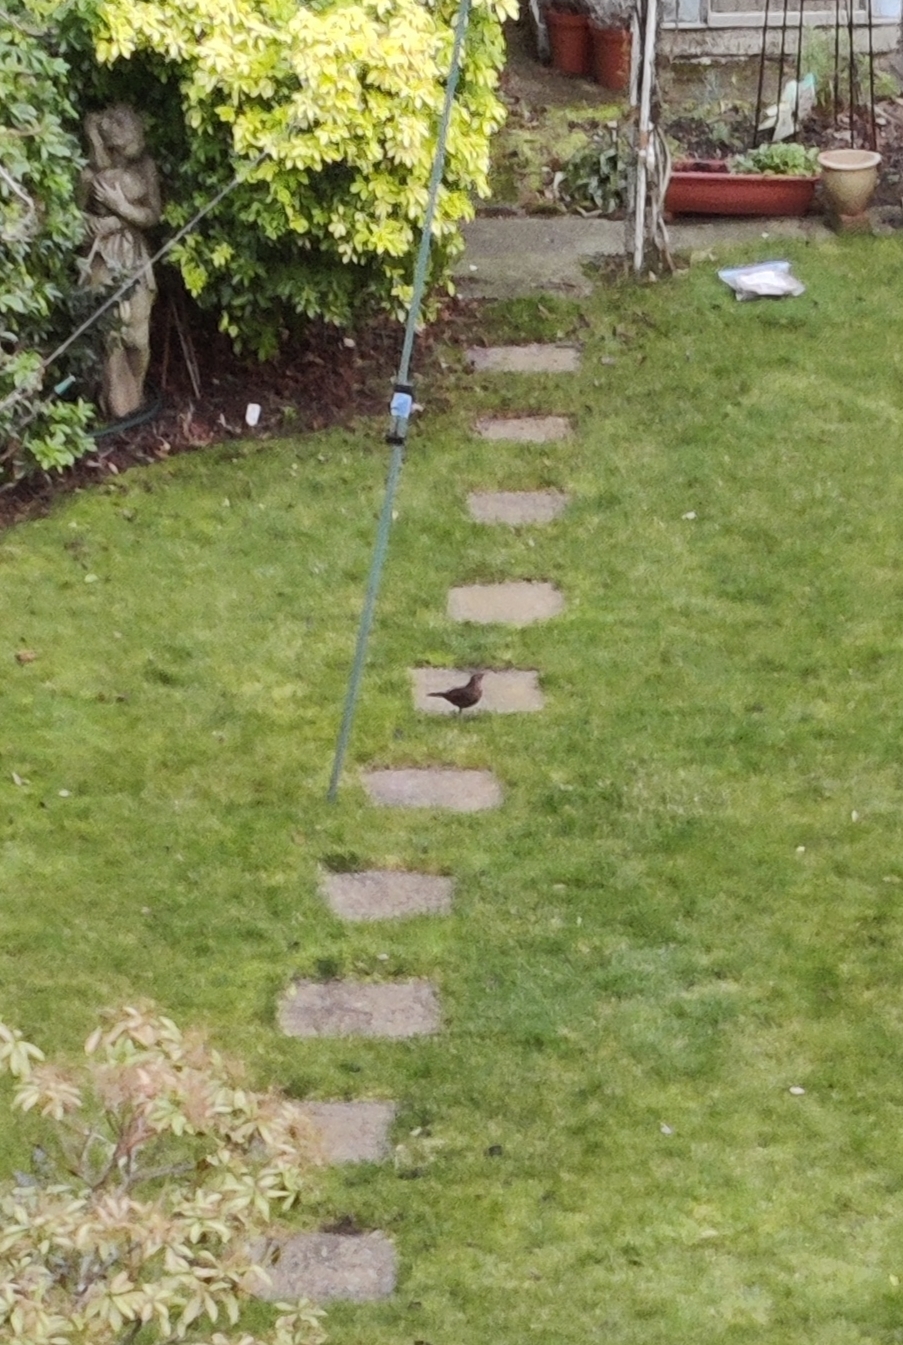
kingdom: Animalia
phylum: Chordata
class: Aves
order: Passeriformes
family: Turdidae
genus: Turdus
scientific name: Turdus merula
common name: Common blackbird
